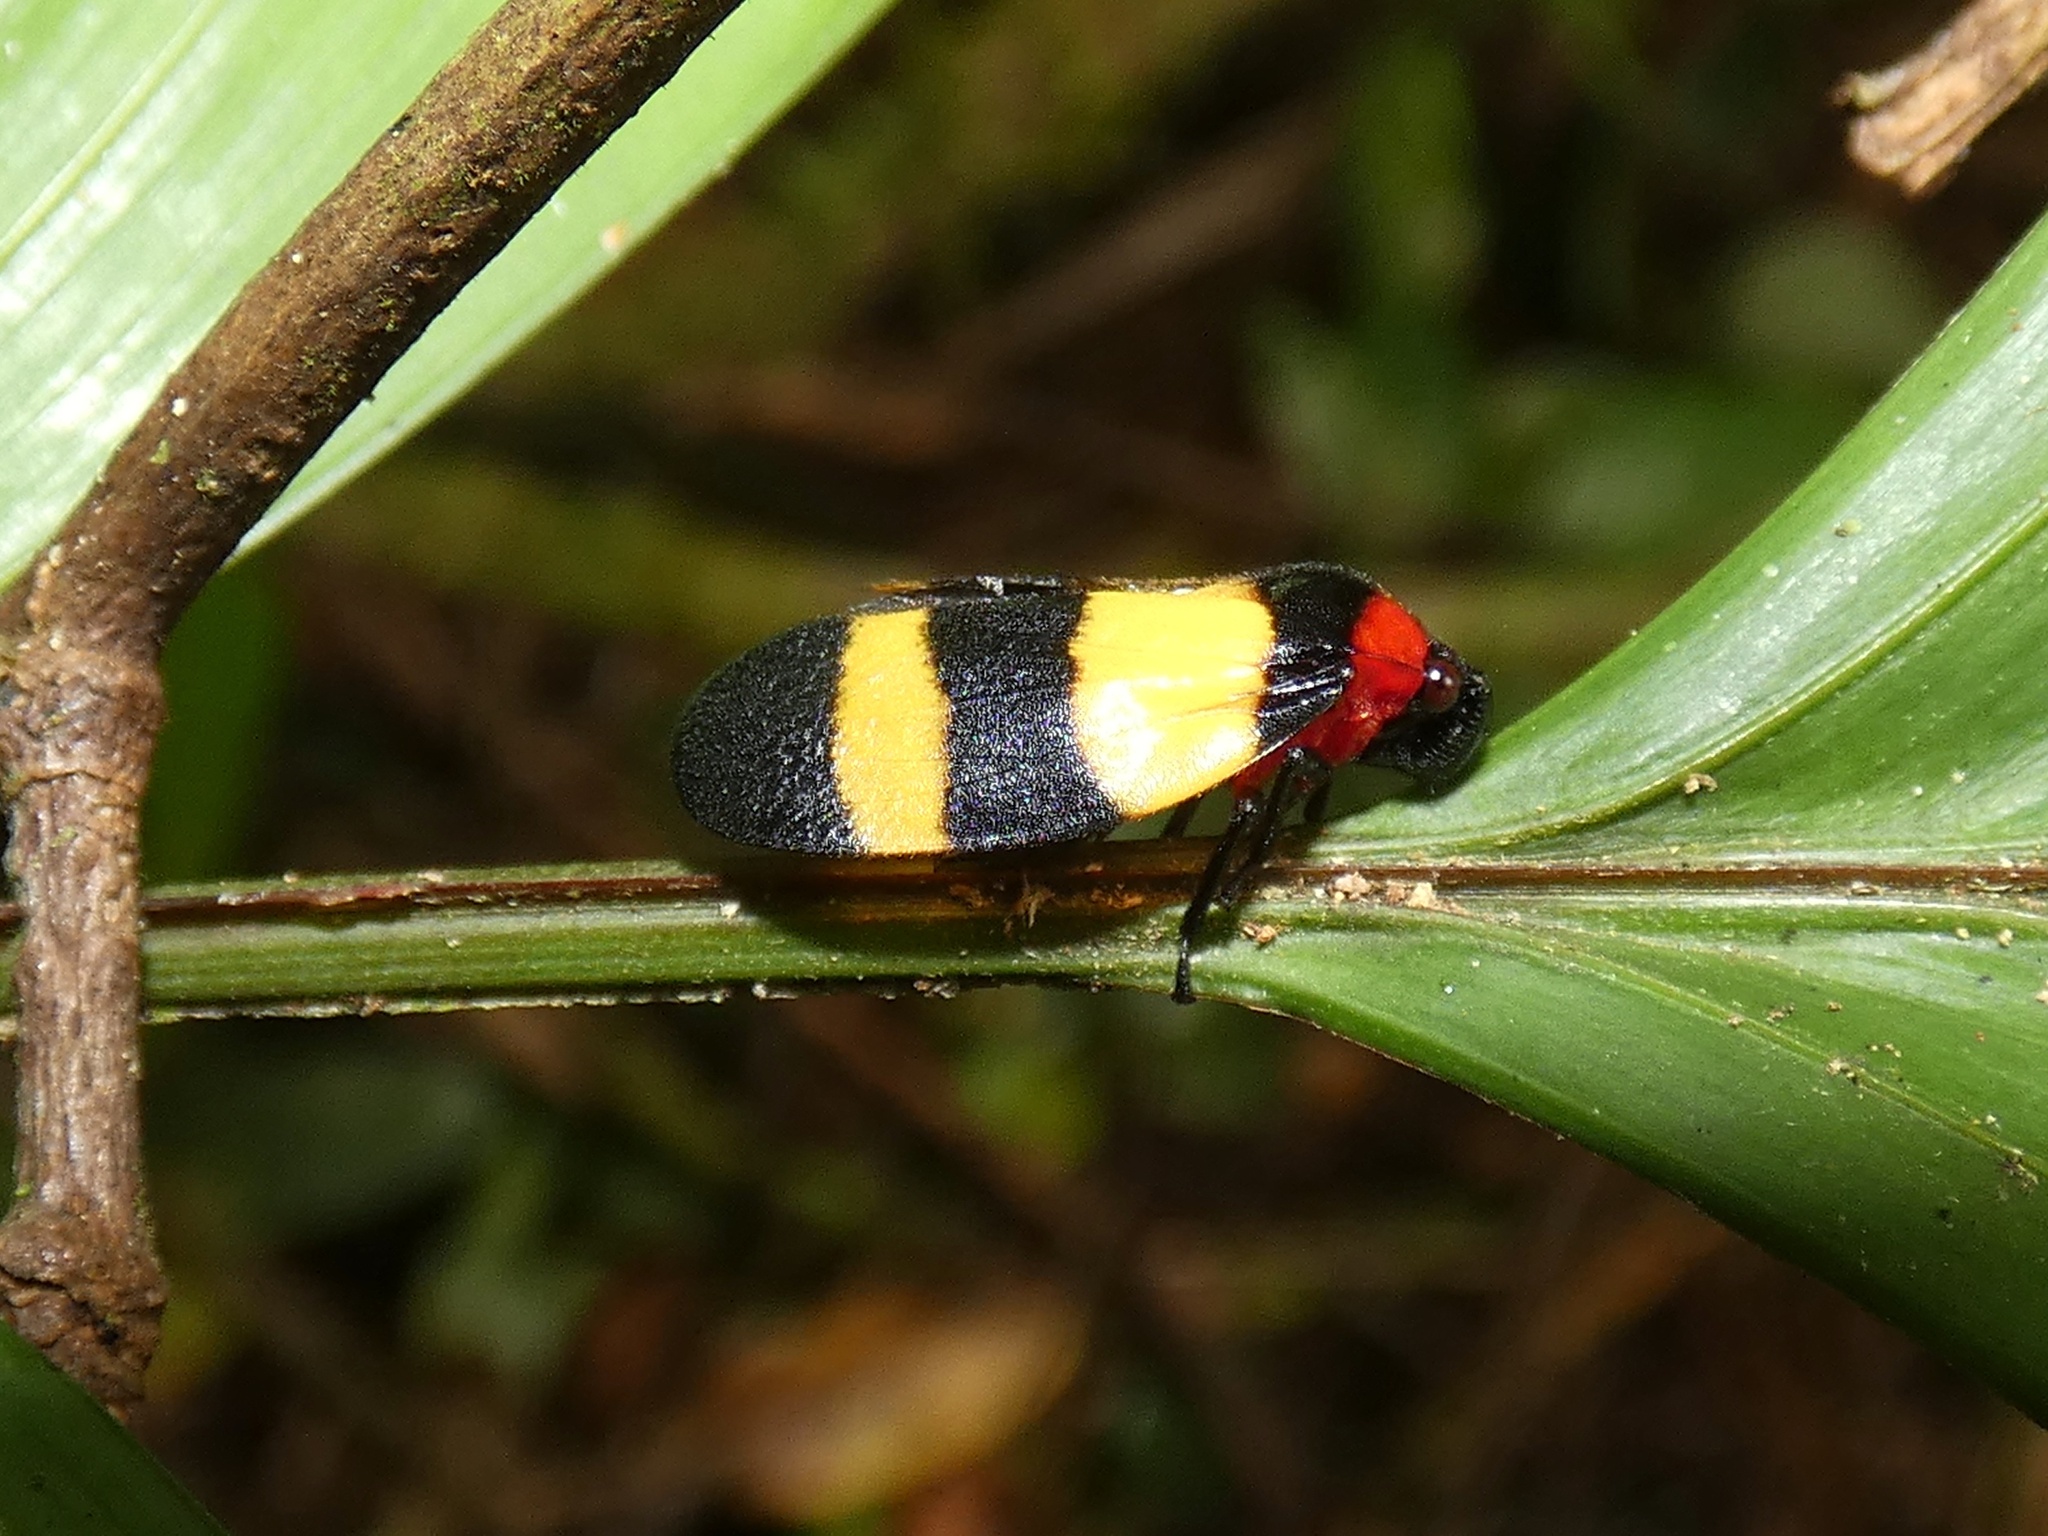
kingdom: Animalia
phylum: Arthropoda
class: Insecta
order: Hemiptera
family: Cercopidae
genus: Sphenorhina
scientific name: Sphenorhina latifascia
